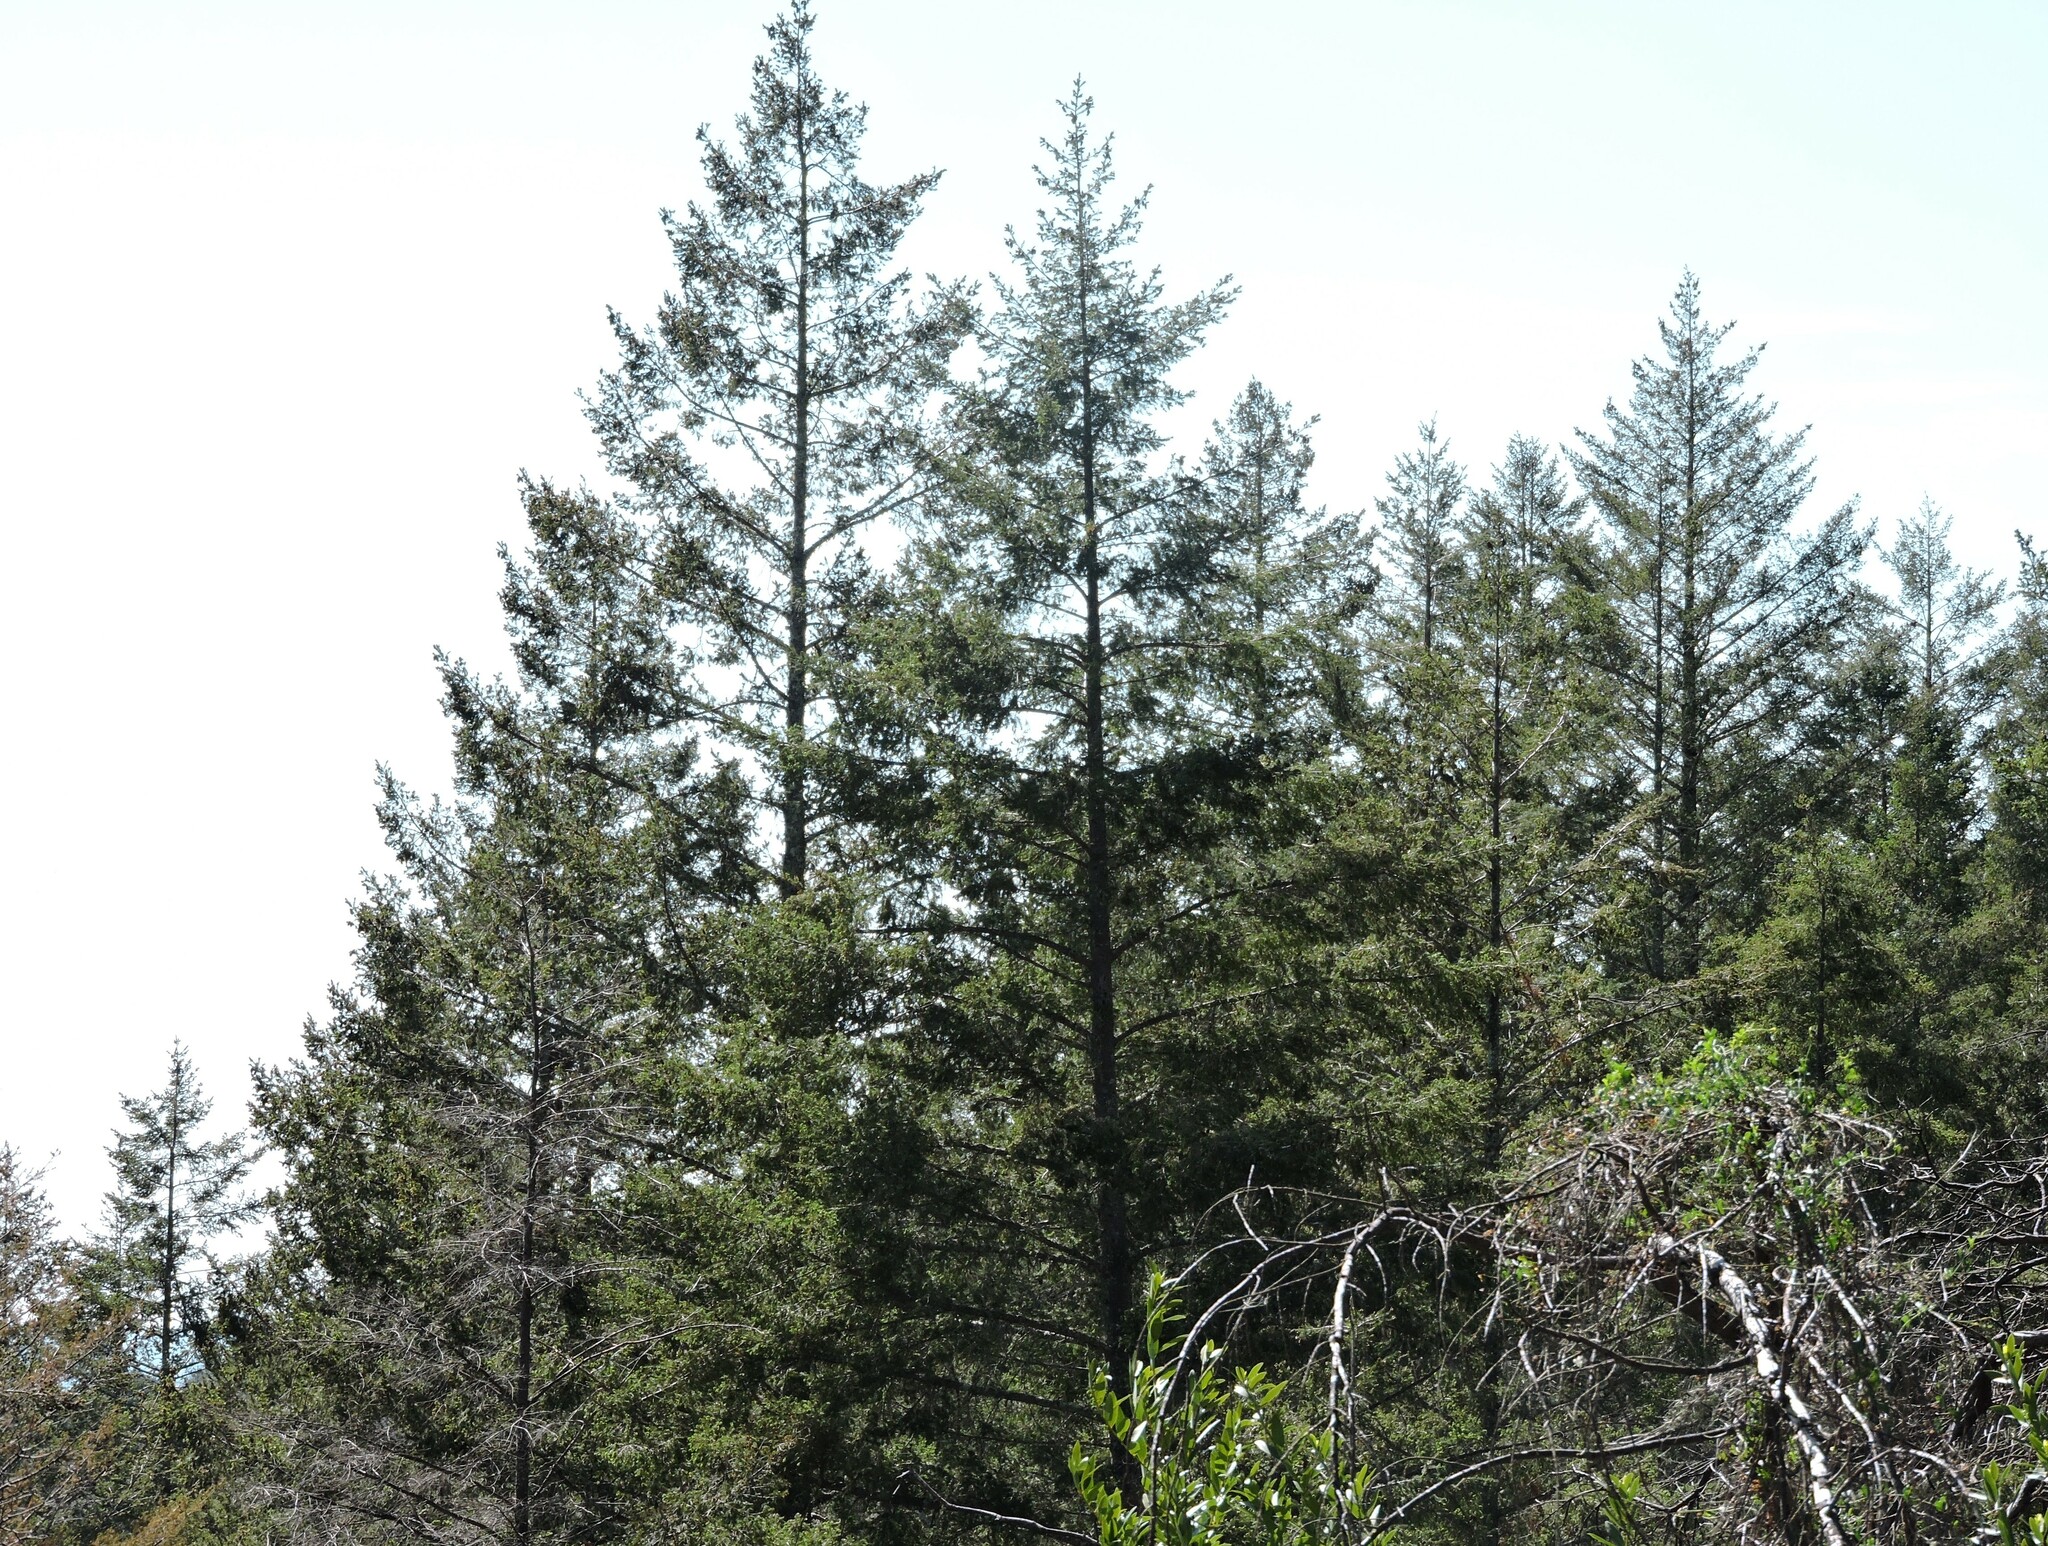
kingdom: Plantae
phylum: Tracheophyta
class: Pinopsida
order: Pinales
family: Pinaceae
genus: Pinus
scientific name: Pinus sabiniana
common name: Bull pine
